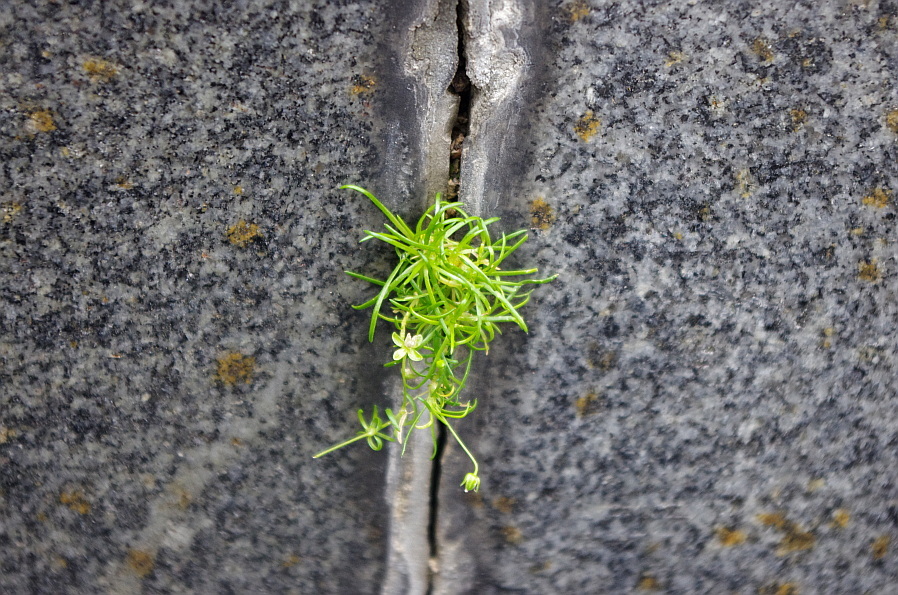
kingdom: Plantae
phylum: Tracheophyta
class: Magnoliopsida
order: Caryophyllales
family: Caryophyllaceae
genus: Sagina
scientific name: Sagina procumbens
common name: Procumbent pearlwort
